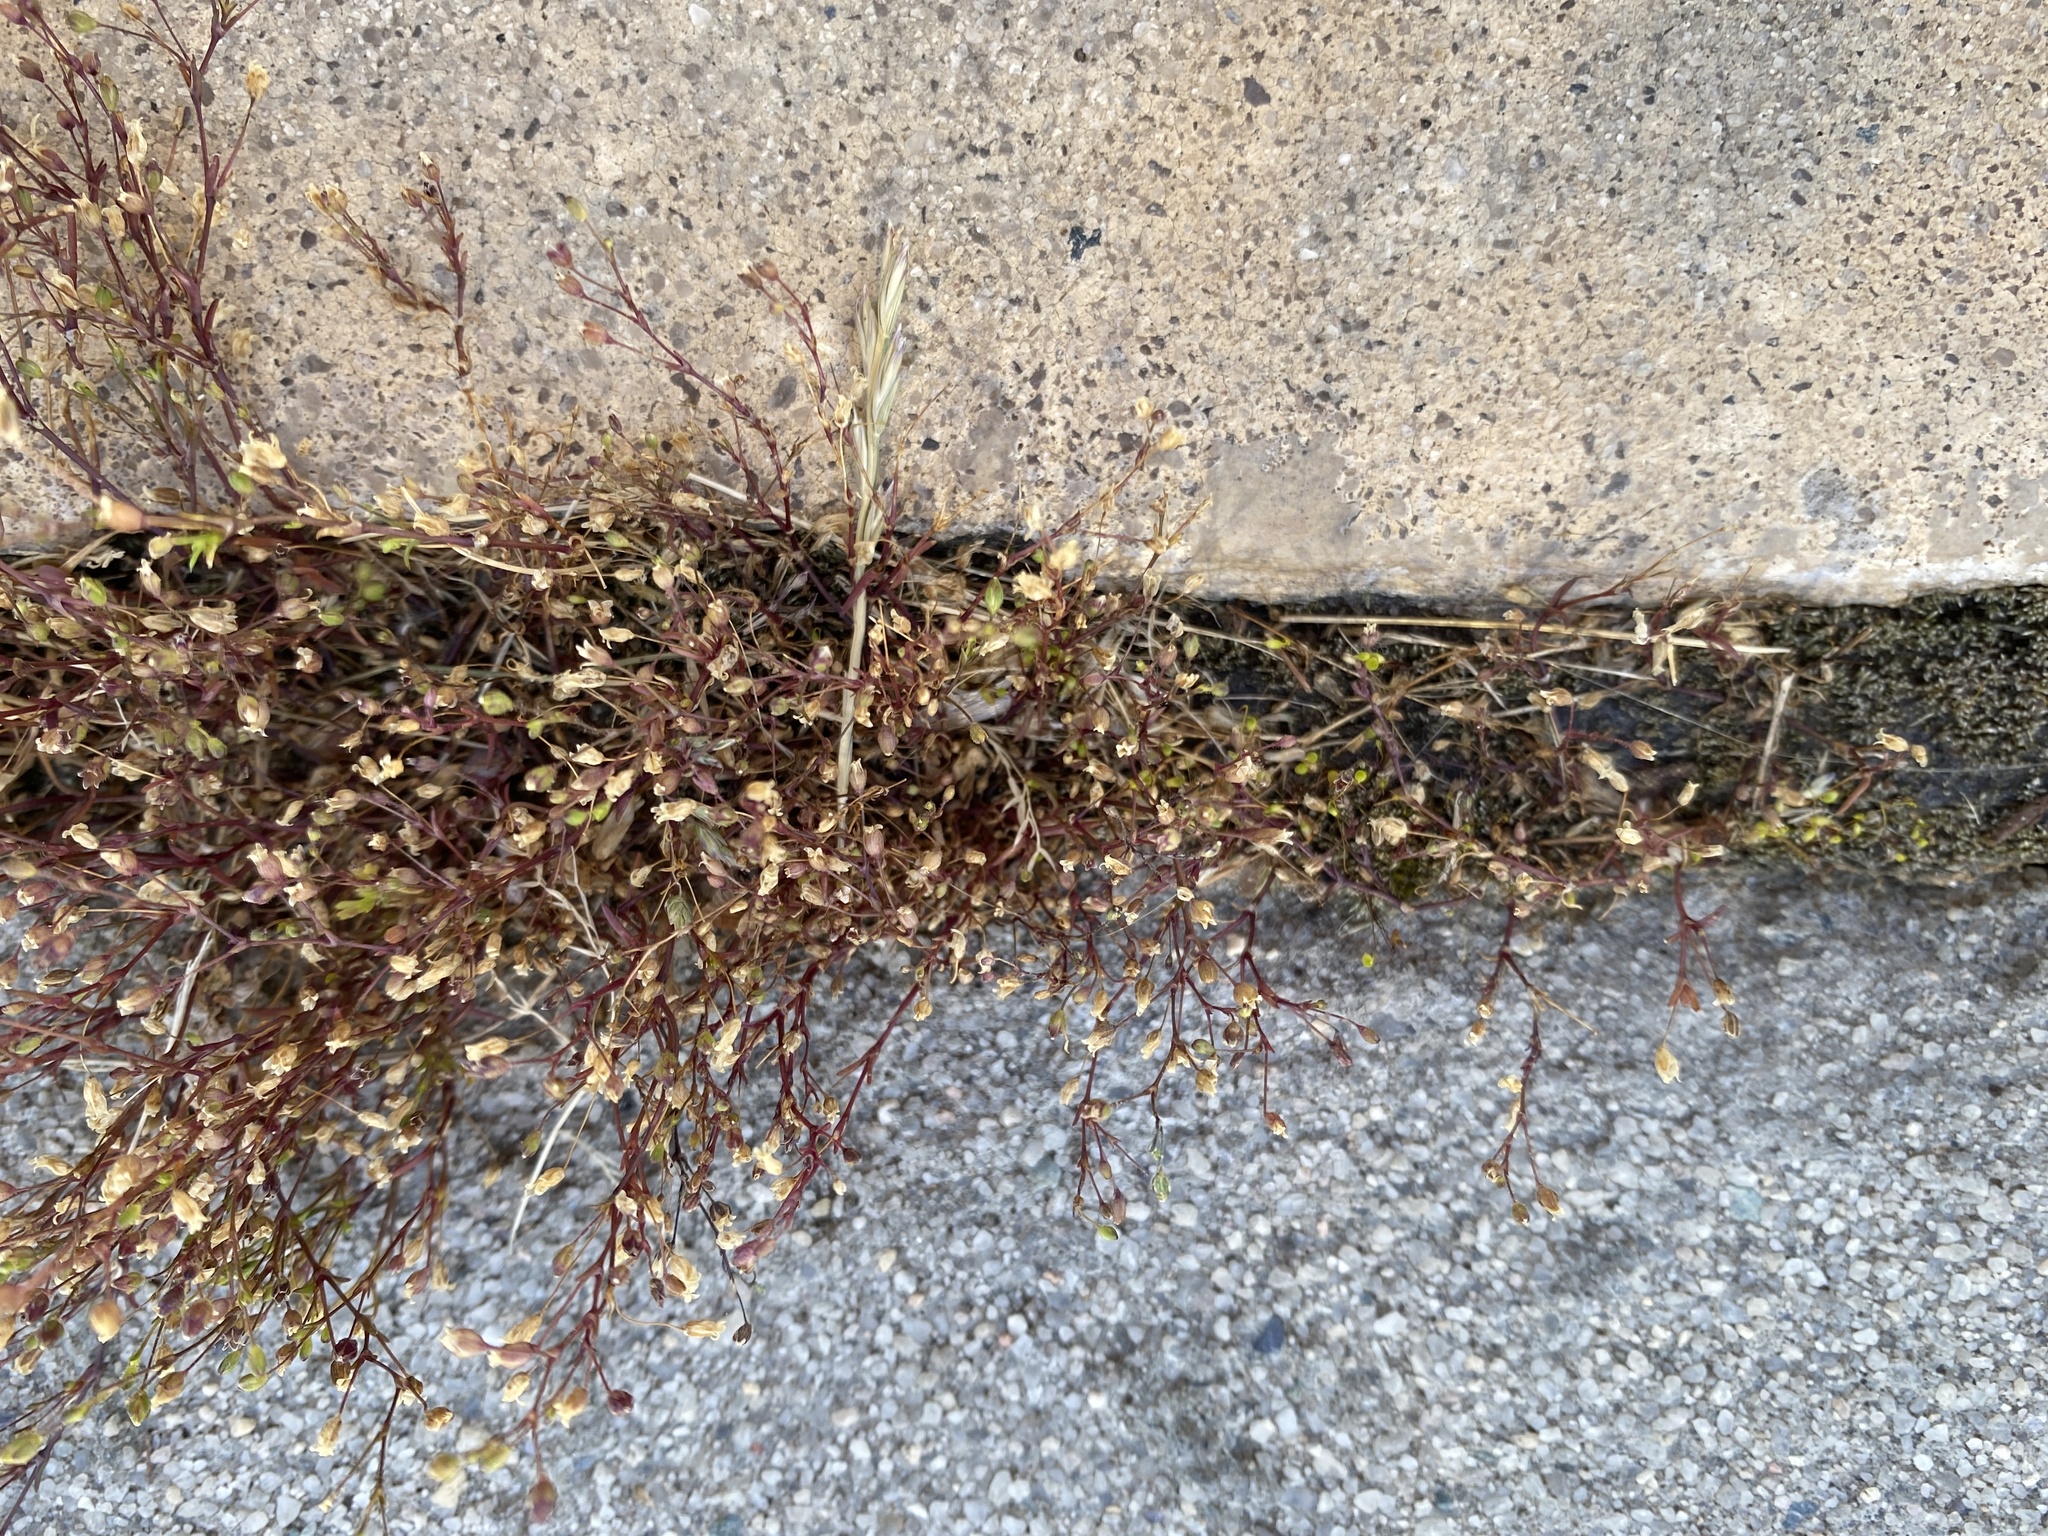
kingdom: Plantae
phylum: Tracheophyta
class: Magnoliopsida
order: Caryophyllales
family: Caryophyllaceae
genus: Sagina
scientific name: Sagina decumbens
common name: Decumbent pearlwort
